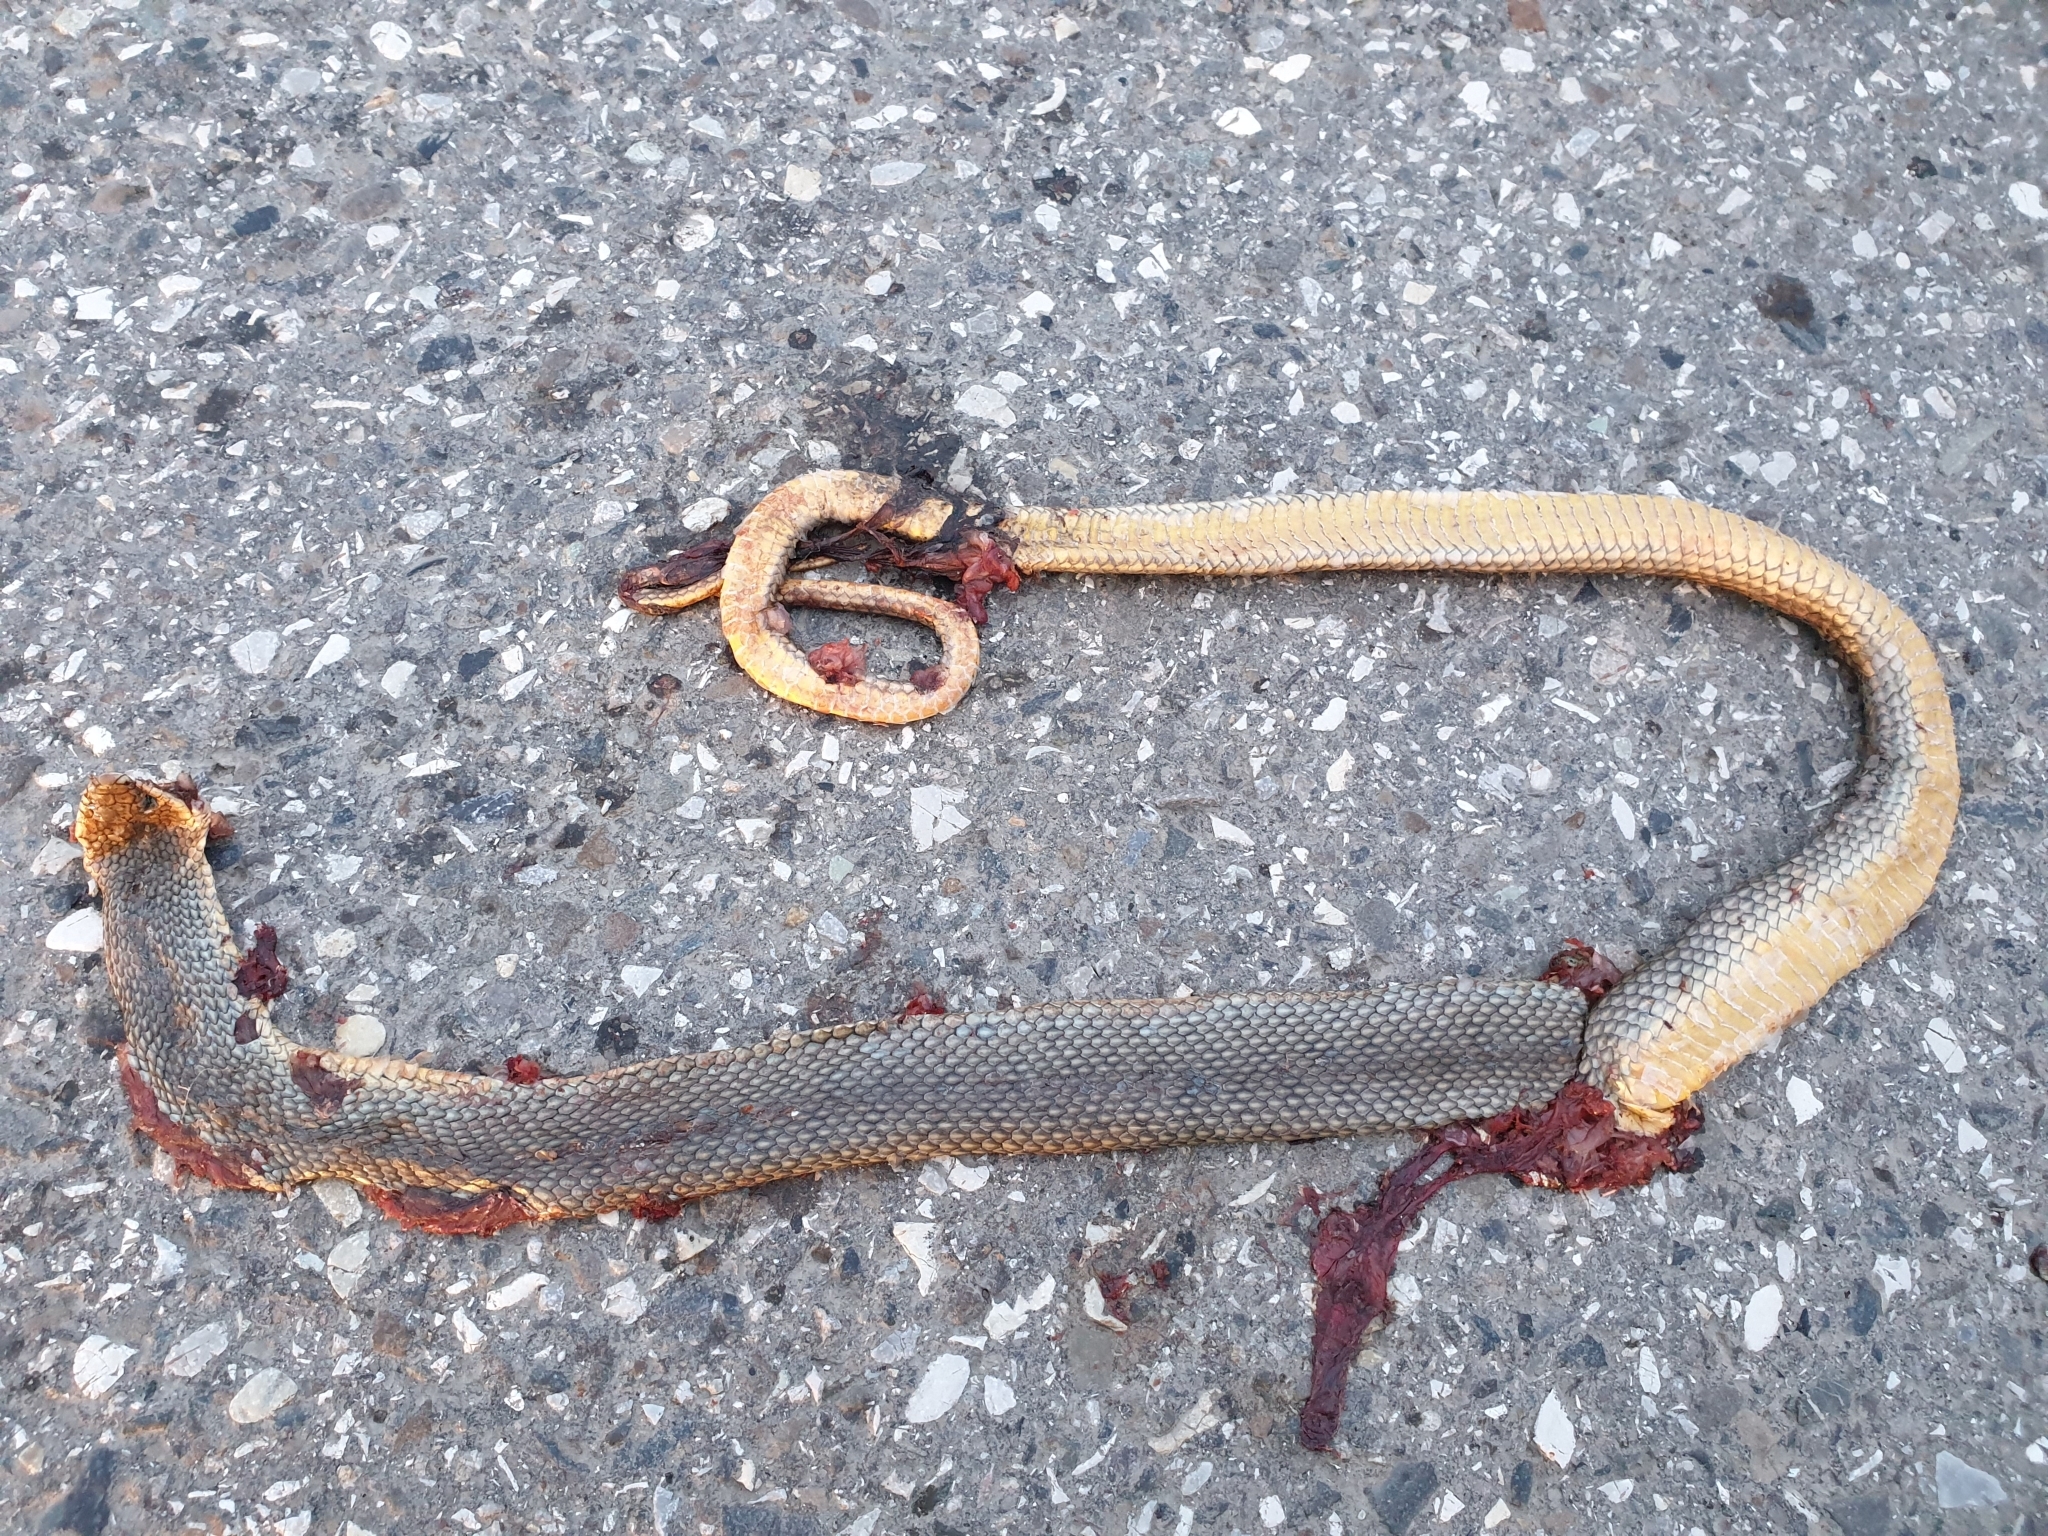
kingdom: Animalia
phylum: Chordata
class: Squamata
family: Colubridae
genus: Dolichophis
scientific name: Dolichophis caspius
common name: Large whip snake
